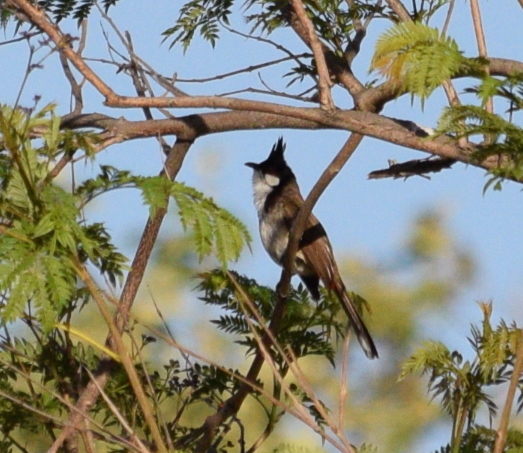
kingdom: Animalia
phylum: Chordata
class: Aves
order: Passeriformes
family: Pycnonotidae
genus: Pycnonotus
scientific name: Pycnonotus jocosus
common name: Red-whiskered bulbul
